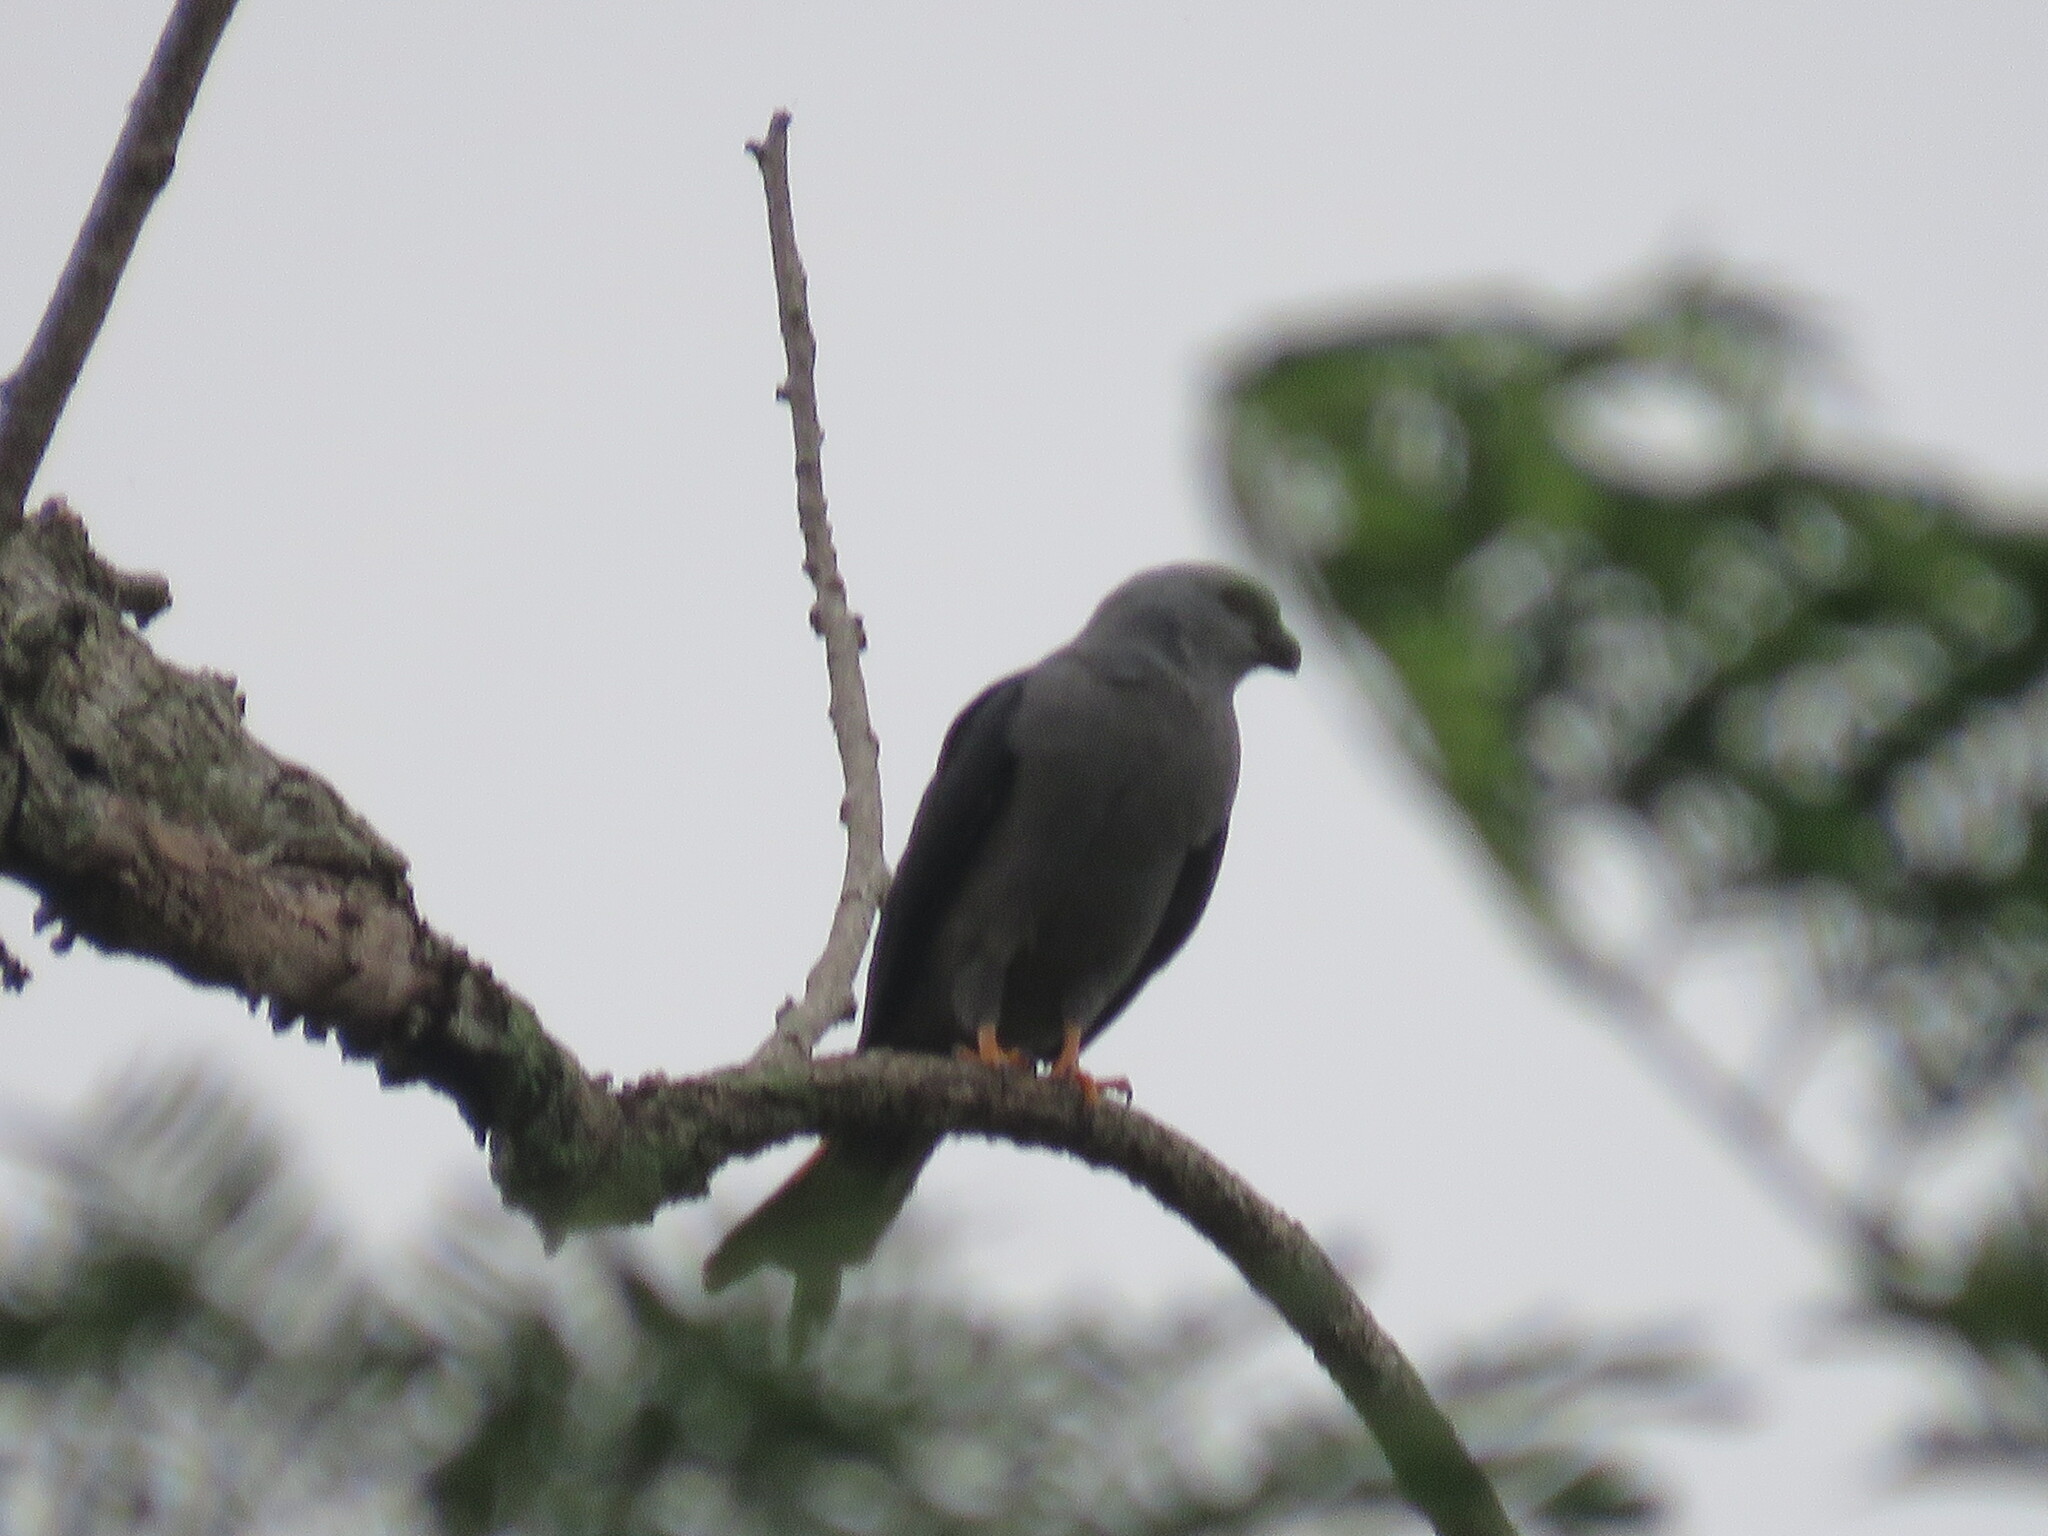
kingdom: Animalia
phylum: Chordata
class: Aves
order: Accipitriformes
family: Accipitridae
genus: Ictinia
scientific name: Ictinia plumbea
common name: Plumbeous kite
